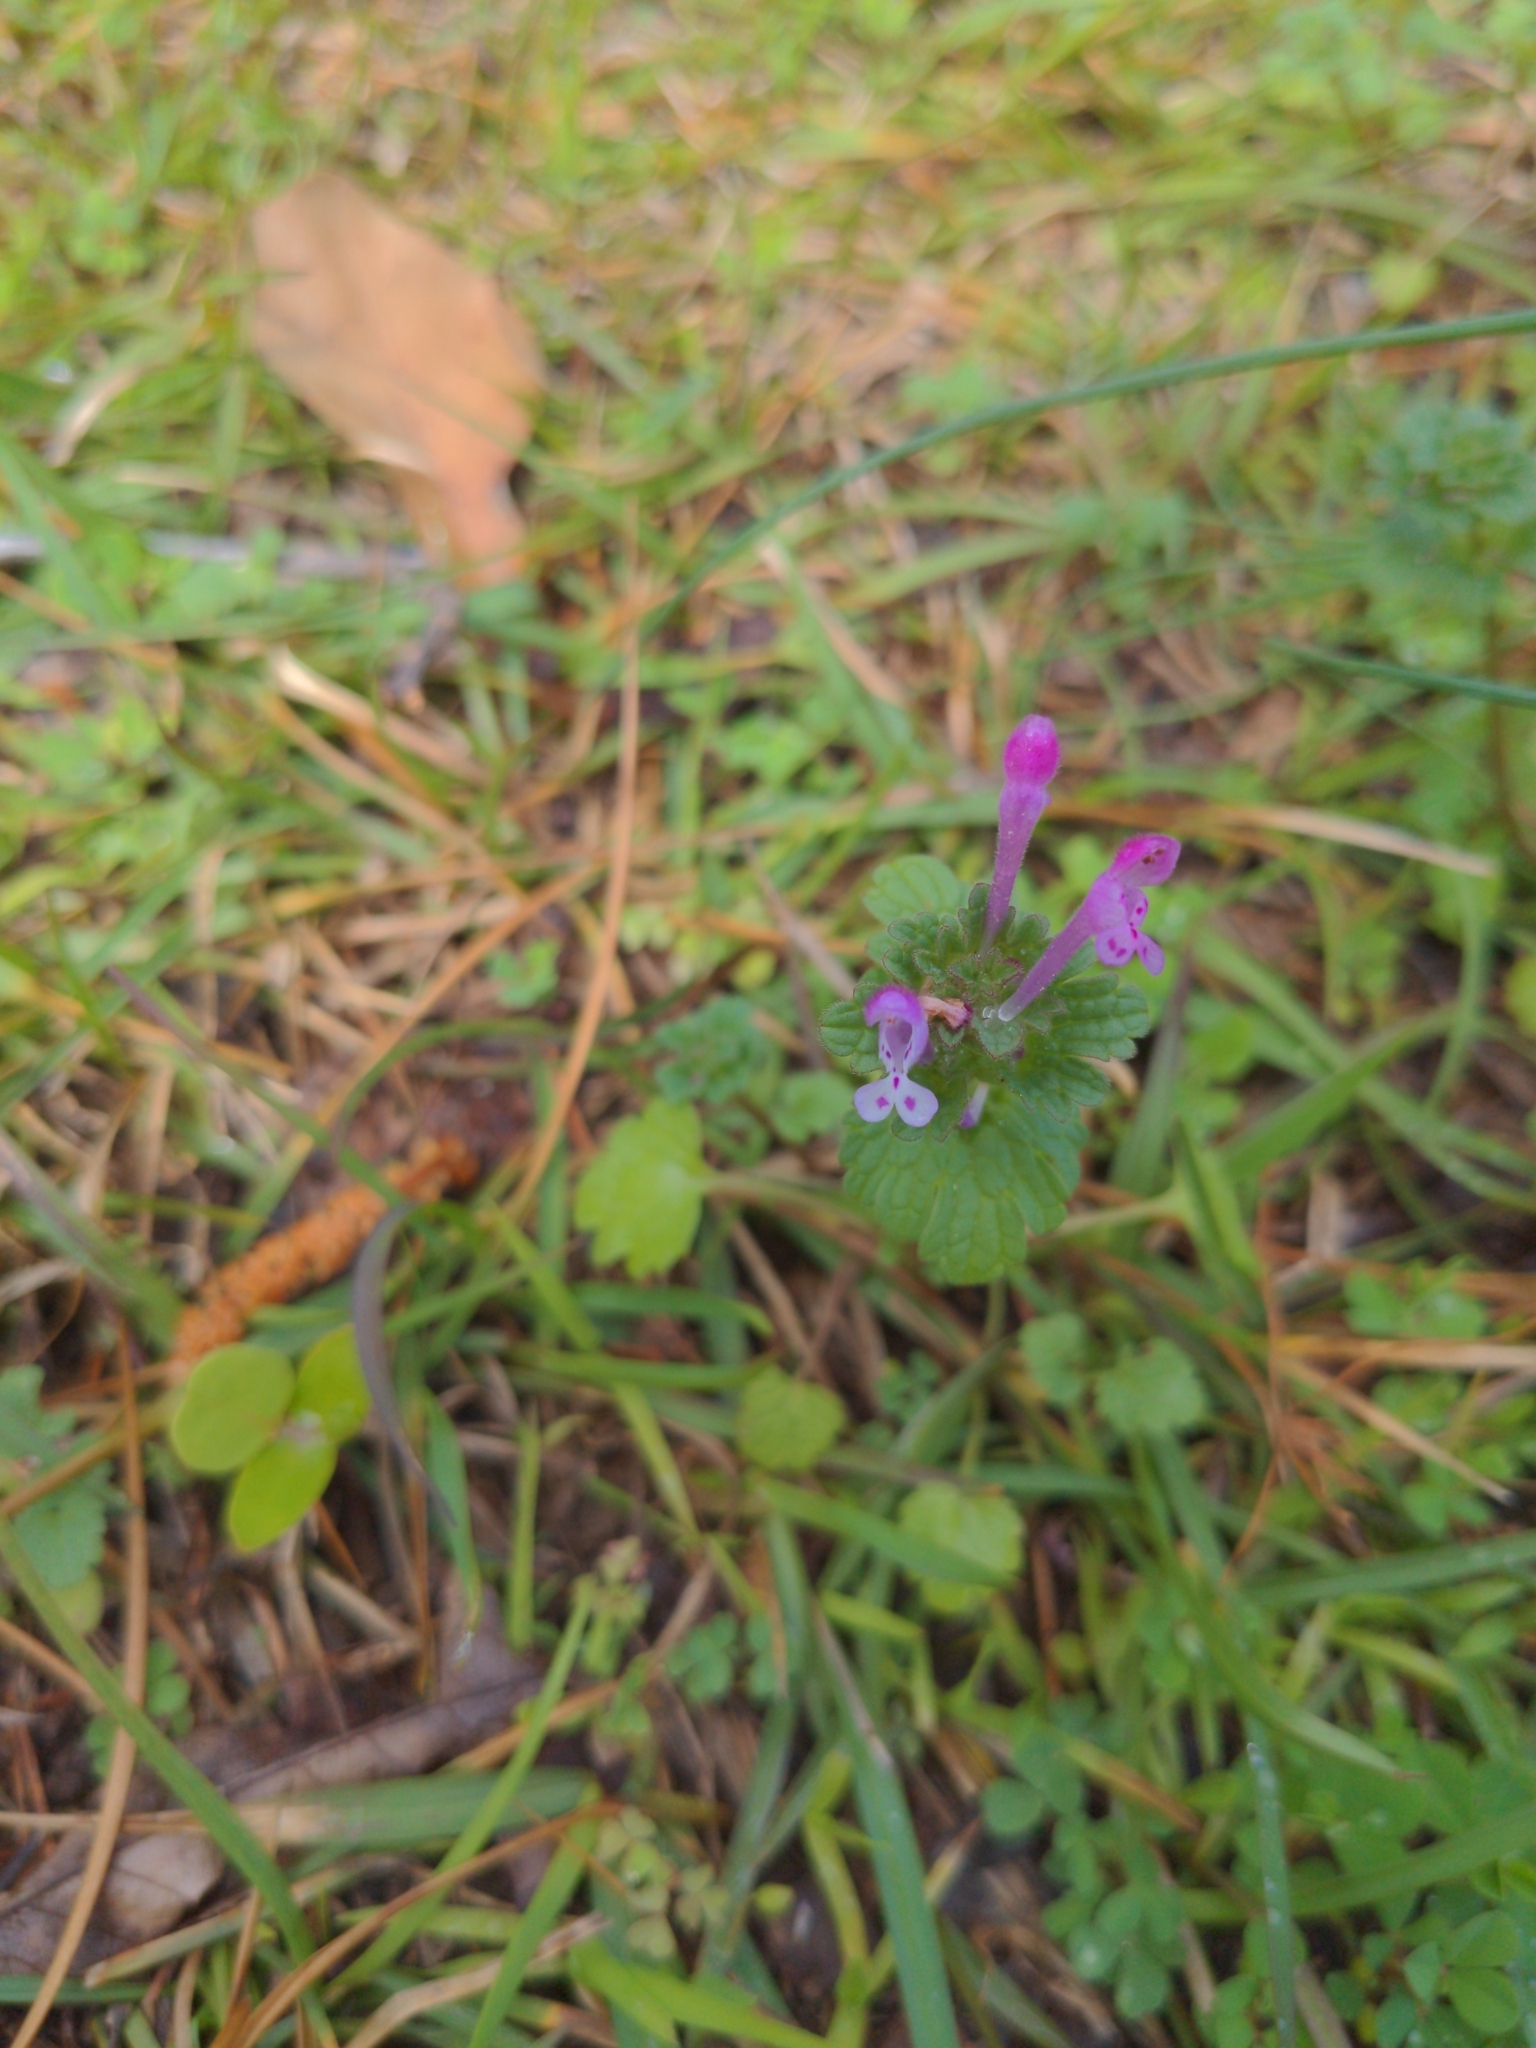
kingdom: Plantae
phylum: Tracheophyta
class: Magnoliopsida
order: Lamiales
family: Lamiaceae
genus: Lamium
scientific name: Lamium amplexicaule
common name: Henbit dead-nettle
